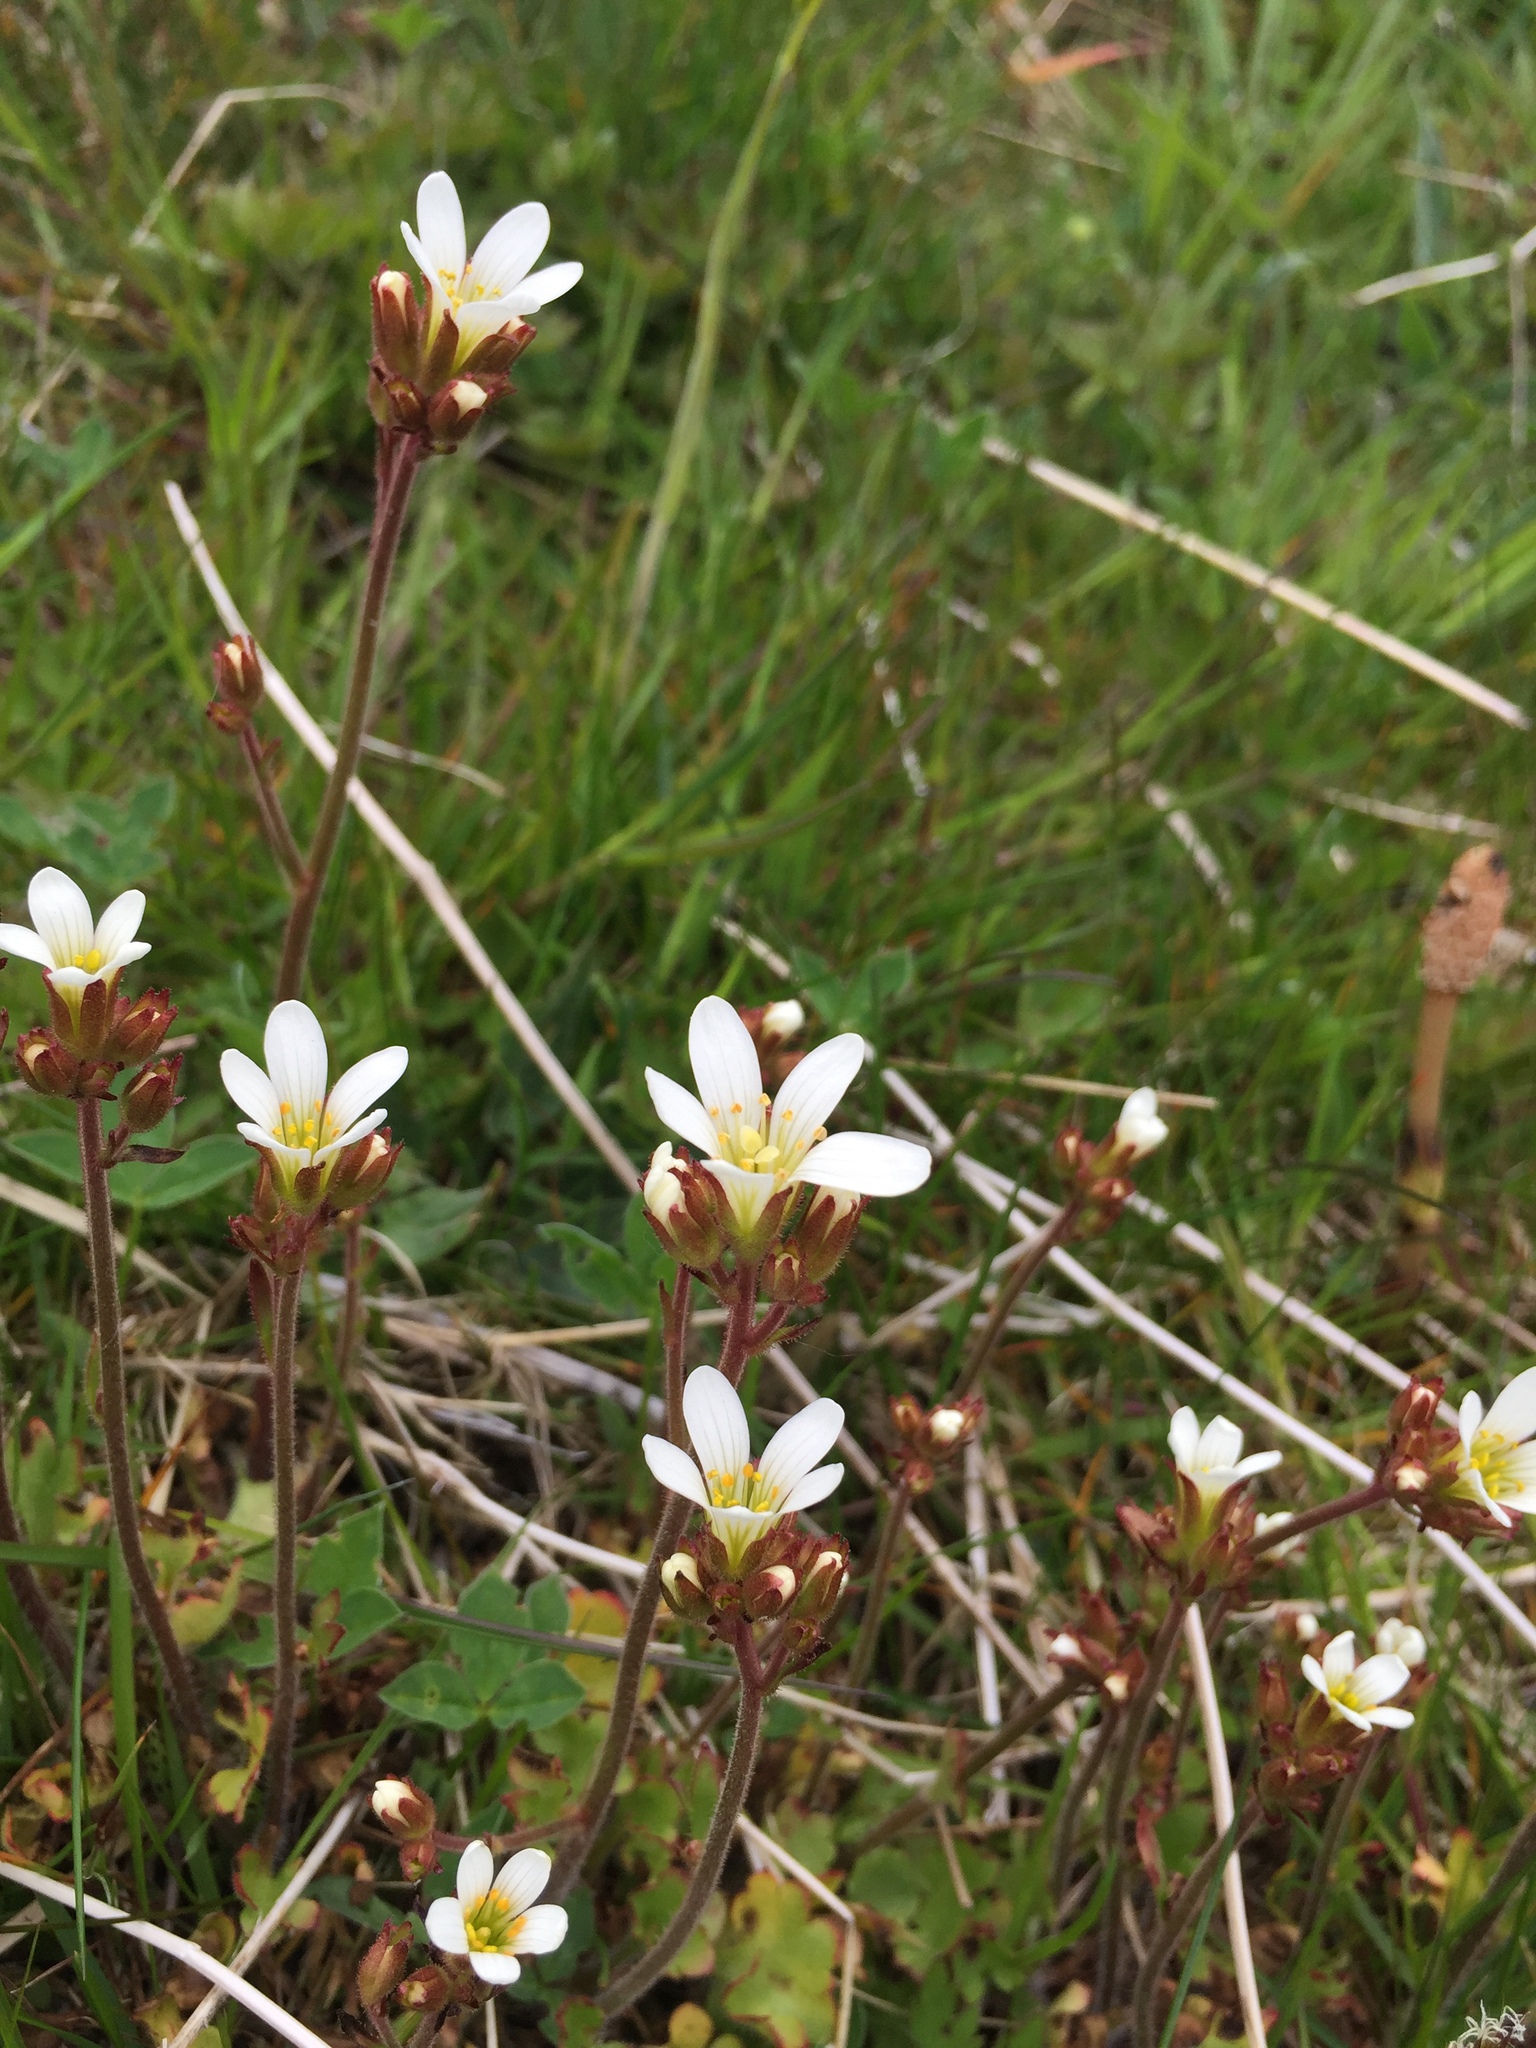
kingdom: Plantae
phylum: Tracheophyta
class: Magnoliopsida
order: Saxifragales
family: Saxifragaceae
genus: Saxifraga
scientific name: Saxifraga granulata
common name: Meadow saxifrage
